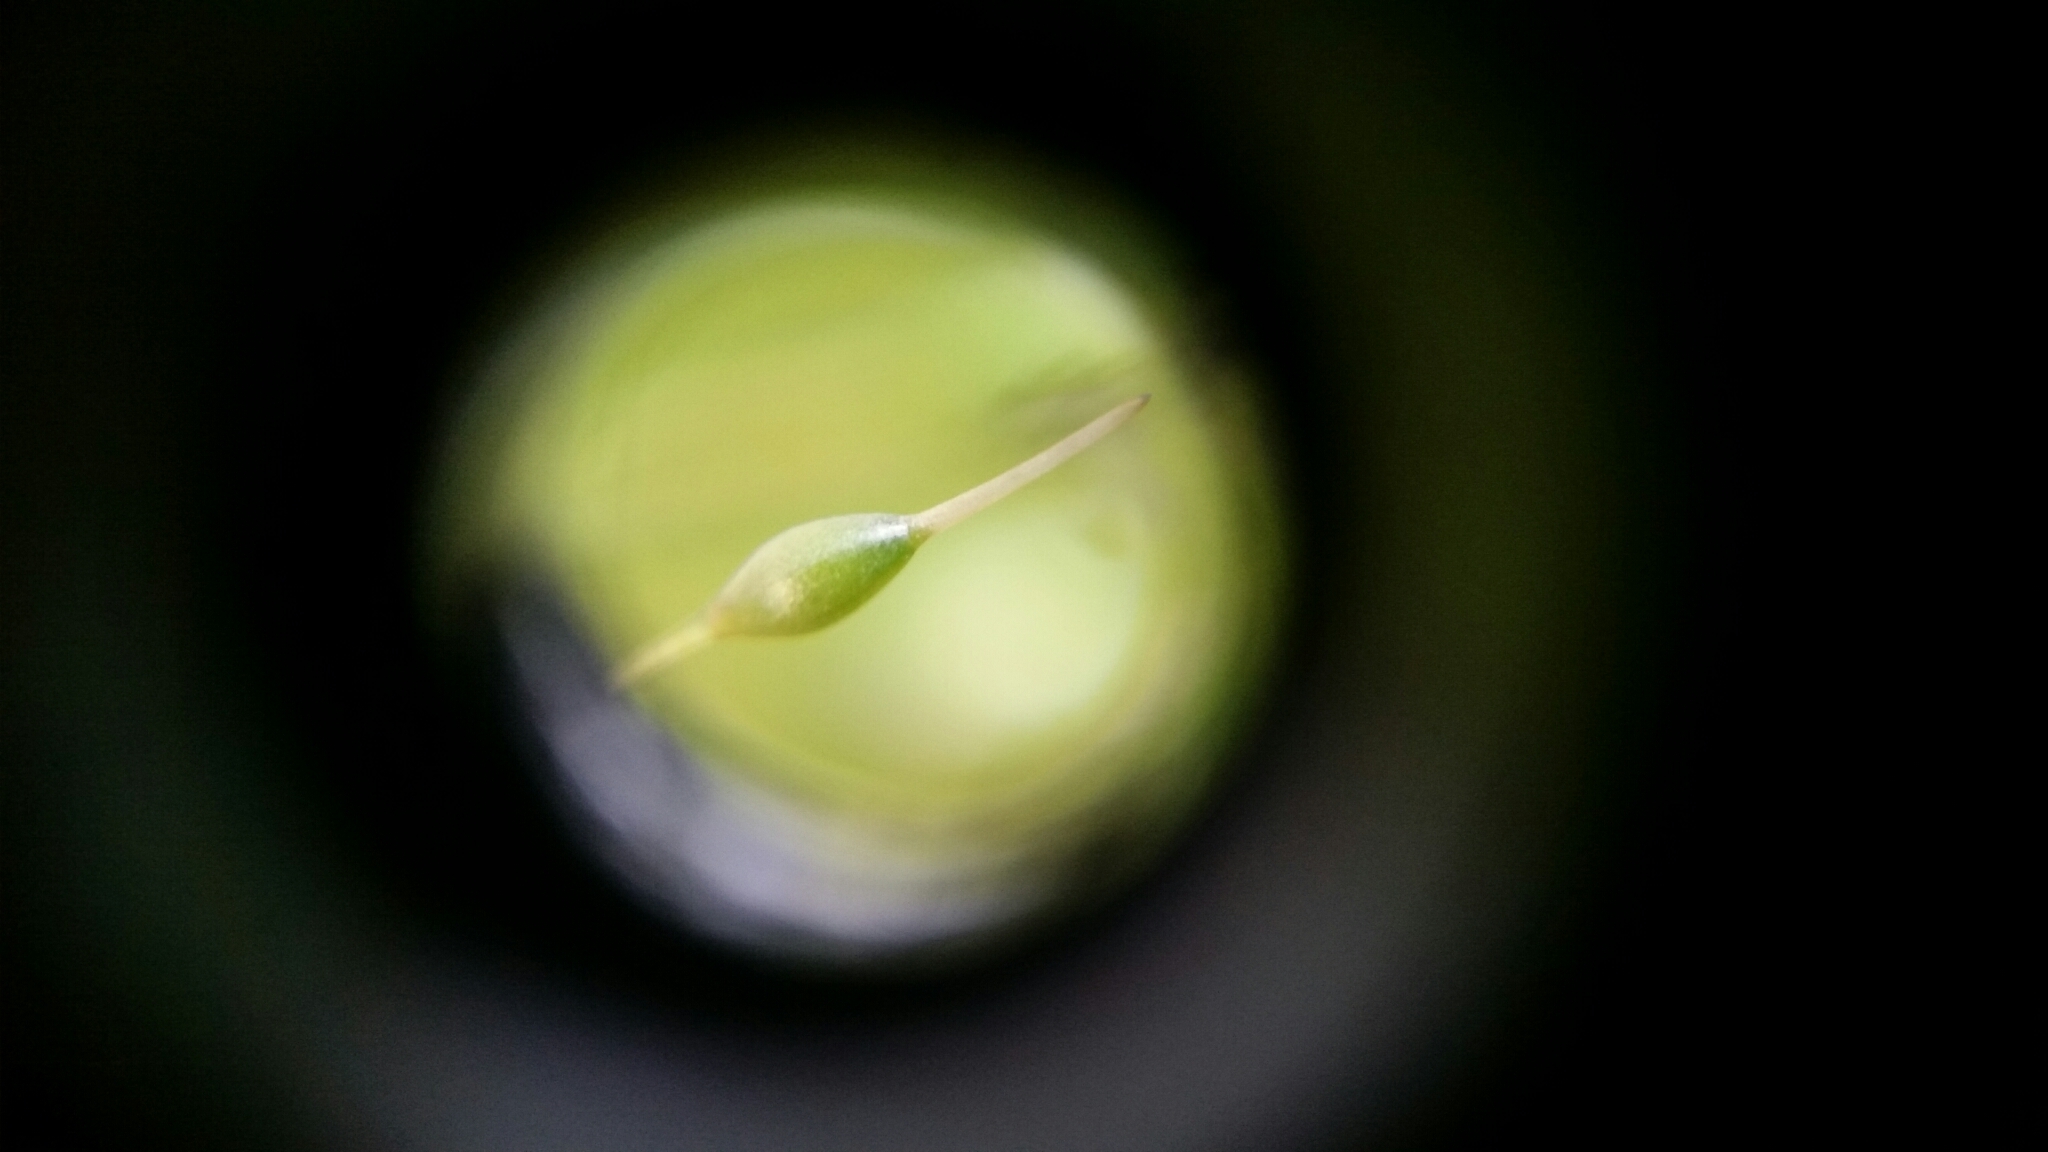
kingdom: Plantae
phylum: Bryophyta
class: Bryopsida
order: Funariales
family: Funariaceae
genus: Funaria
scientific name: Funaria hygrometrica
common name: Common cord moss
